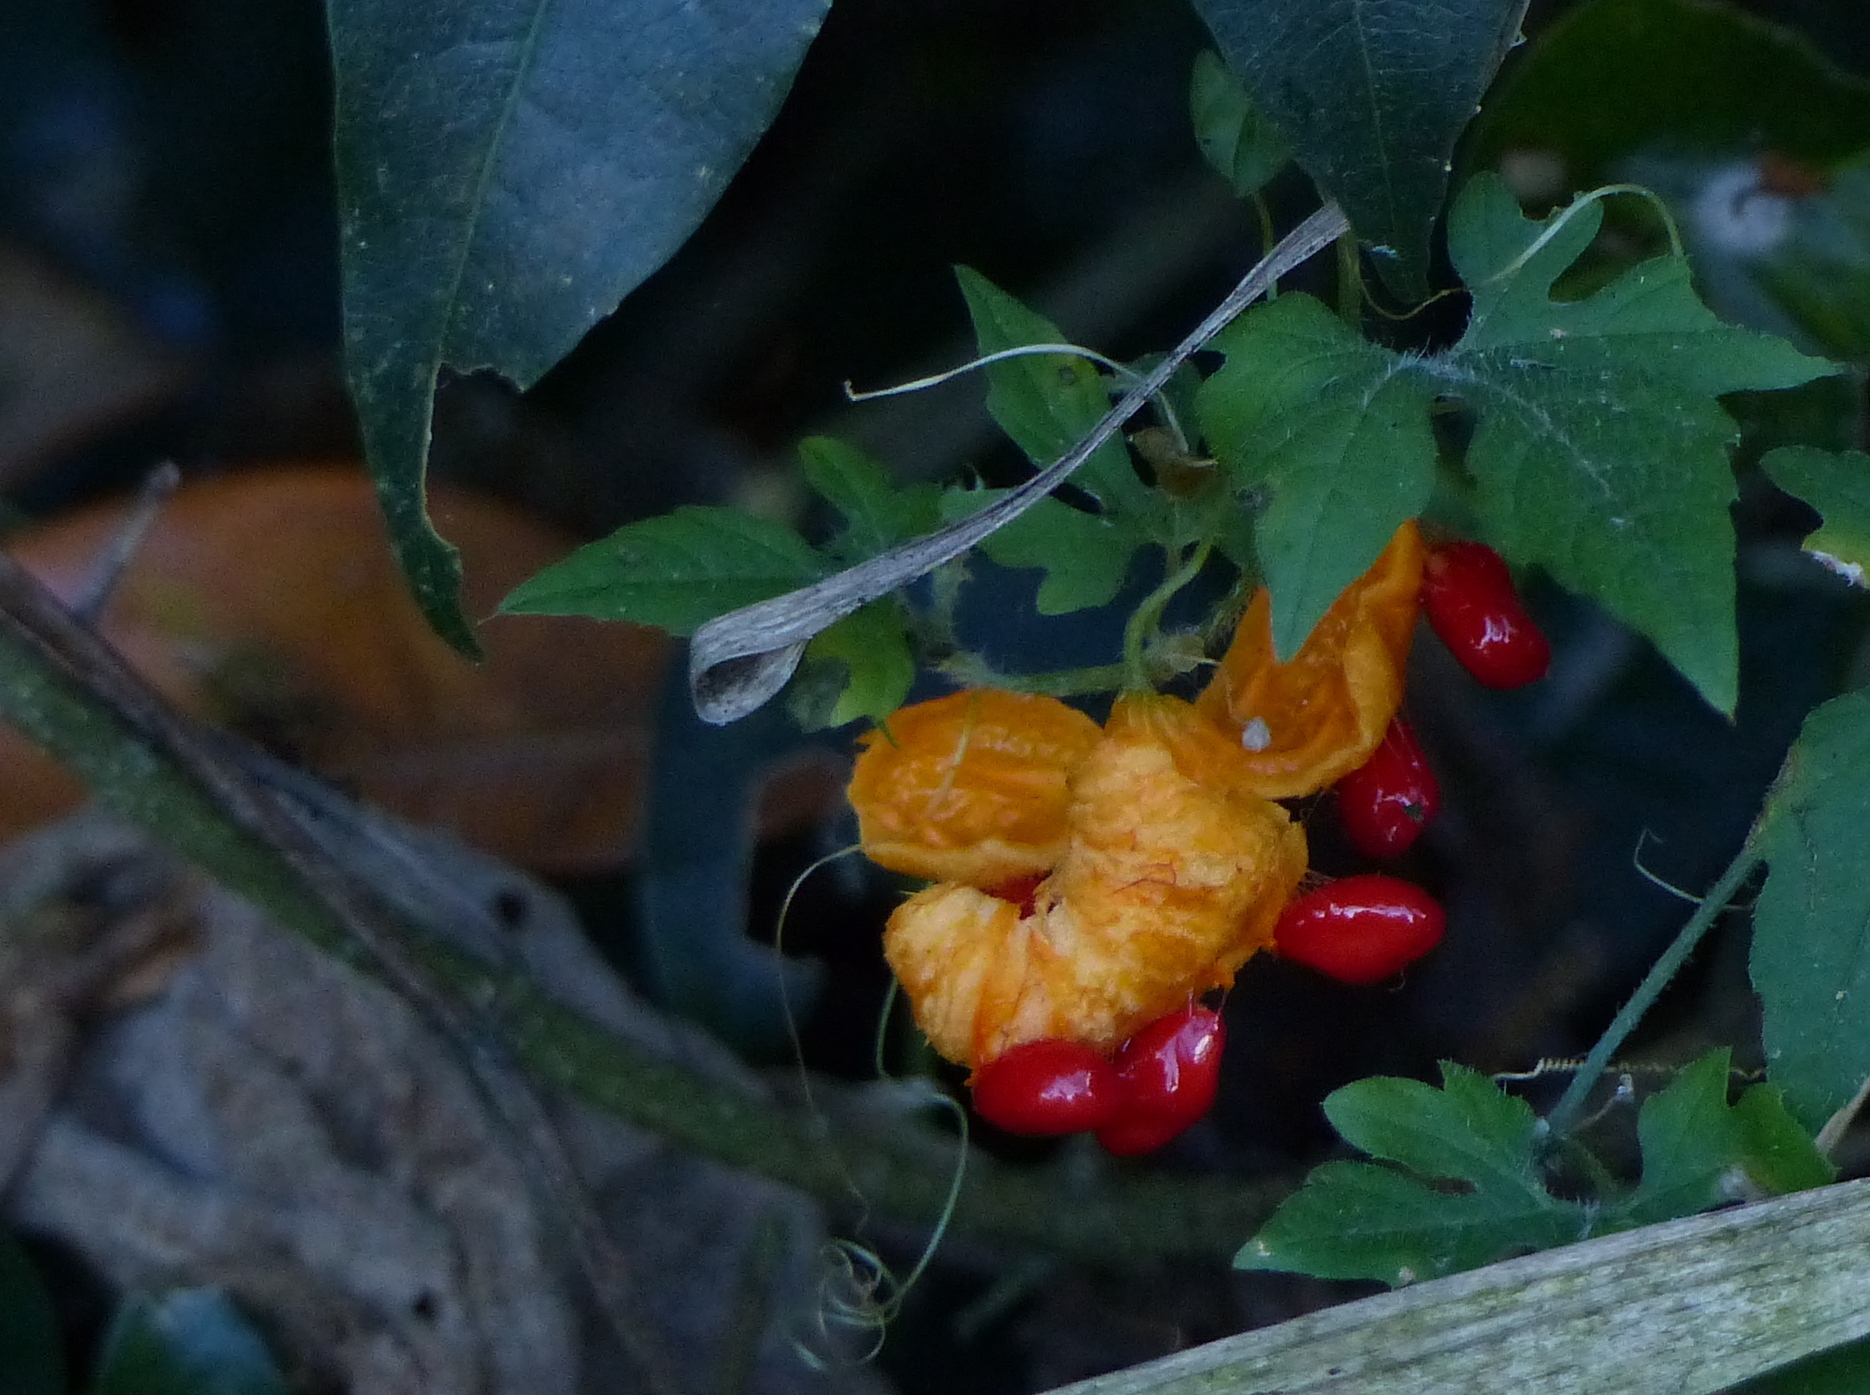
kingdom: Plantae
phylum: Tracheophyta
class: Magnoliopsida
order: Cucurbitales
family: Cucurbitaceae
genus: Momordica
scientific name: Momordica charantia
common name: Balsampear
